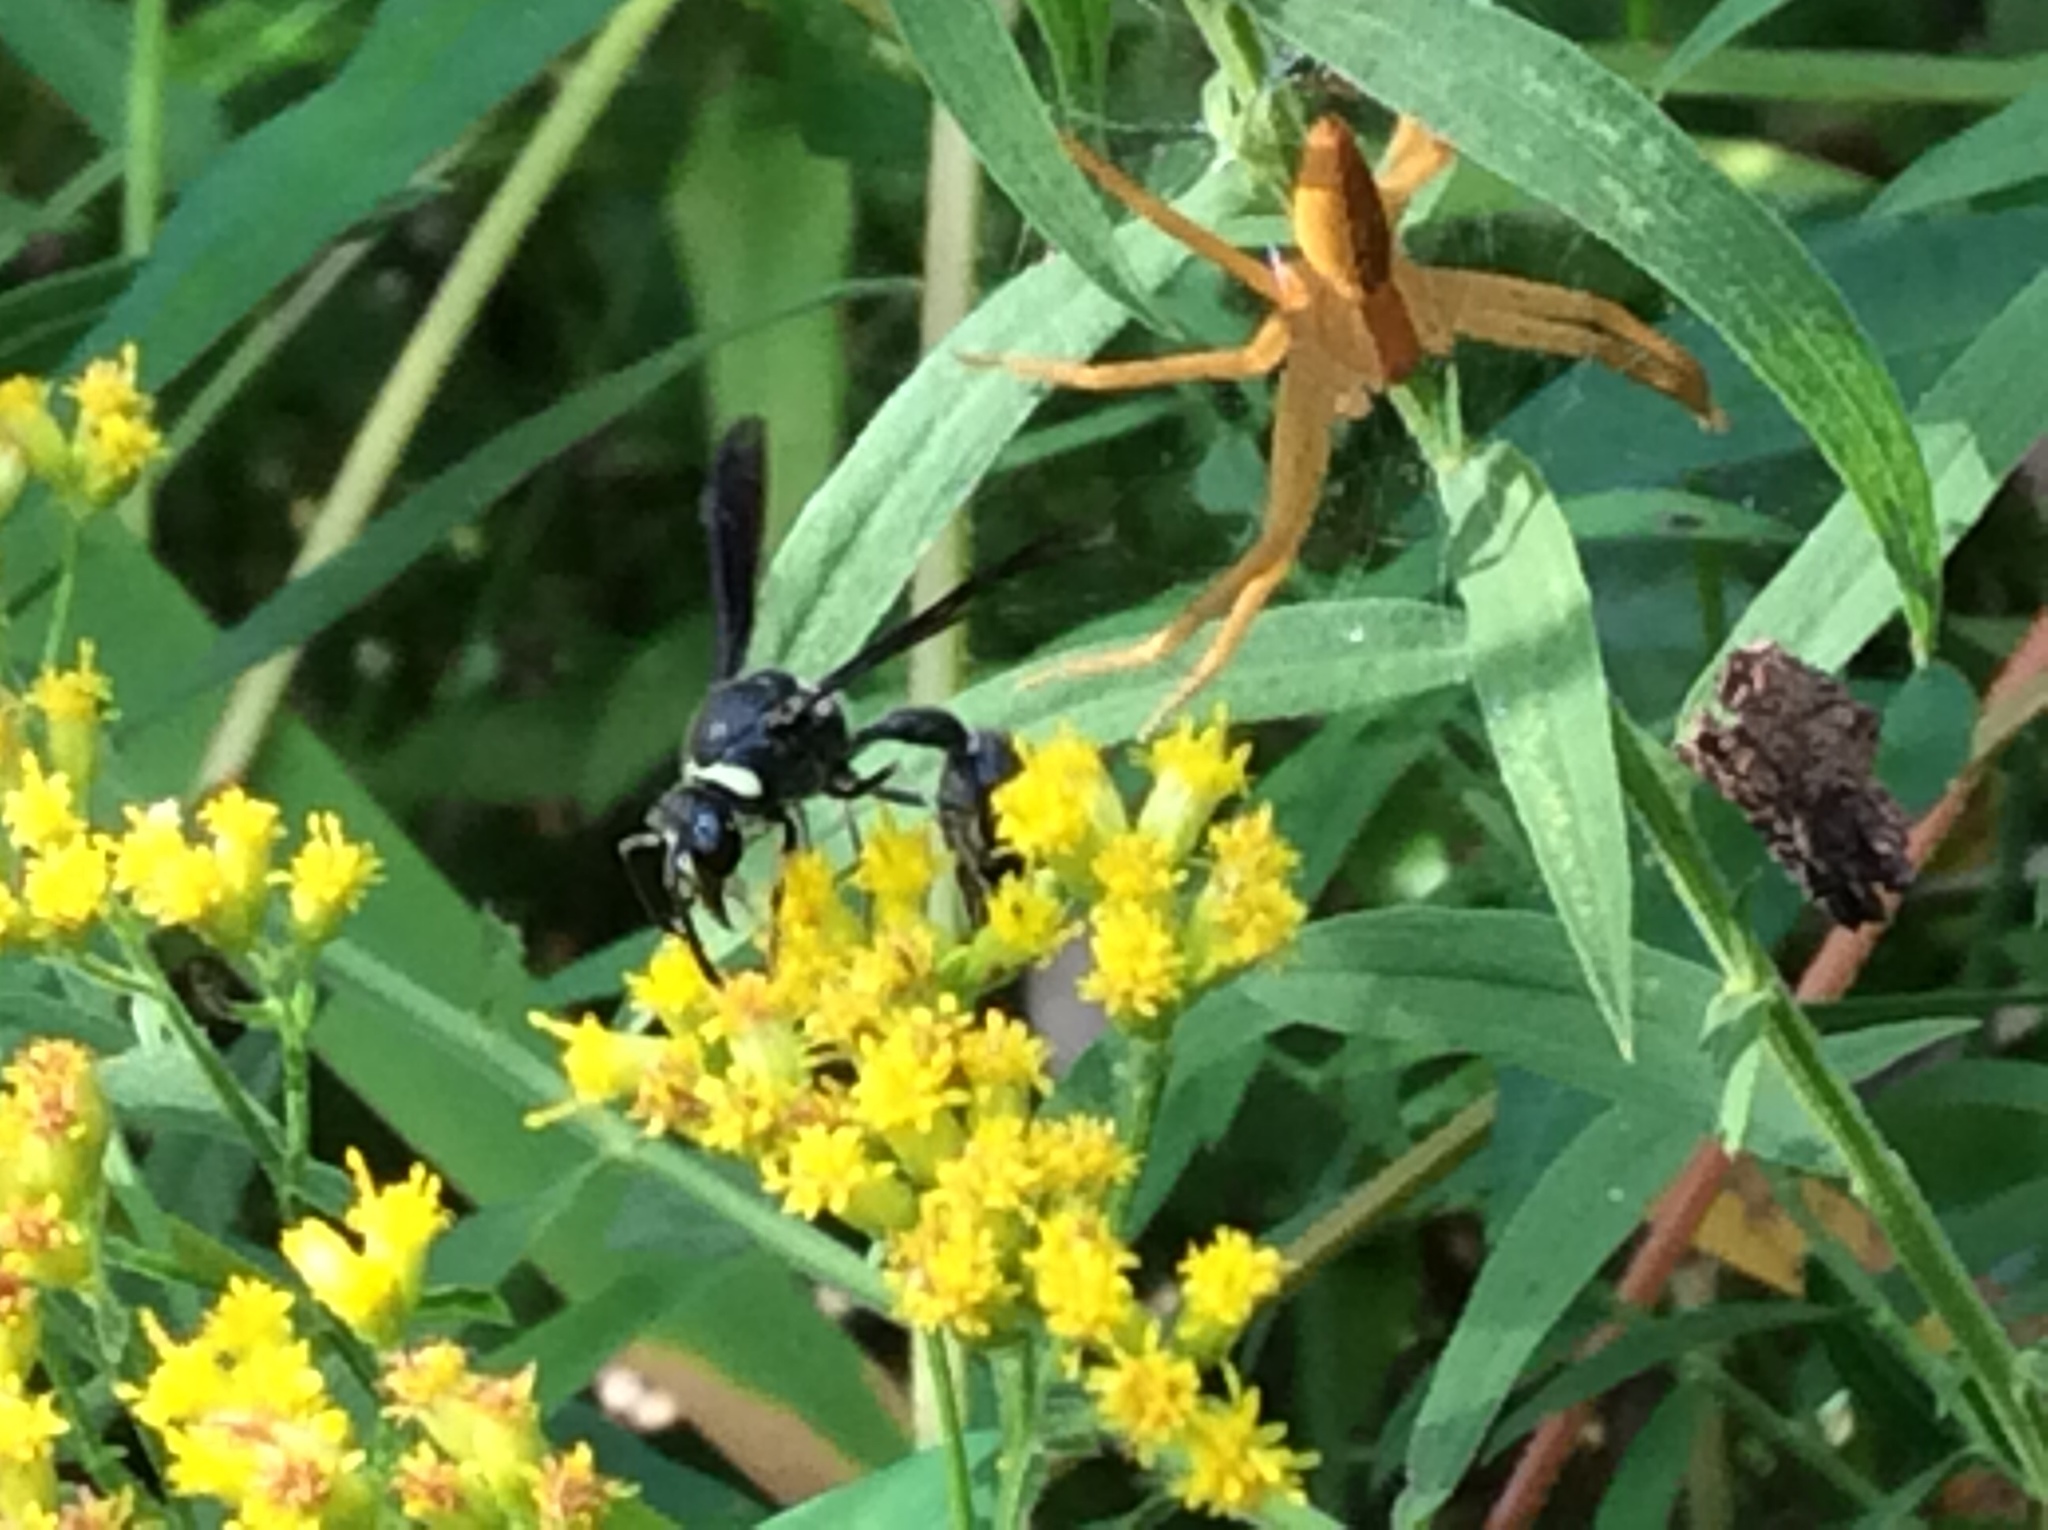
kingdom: Animalia
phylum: Arthropoda
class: Insecta
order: Hymenoptera
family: Vespidae
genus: Eumenes
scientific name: Eumenes fraternus
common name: Fraternal potter wasp
